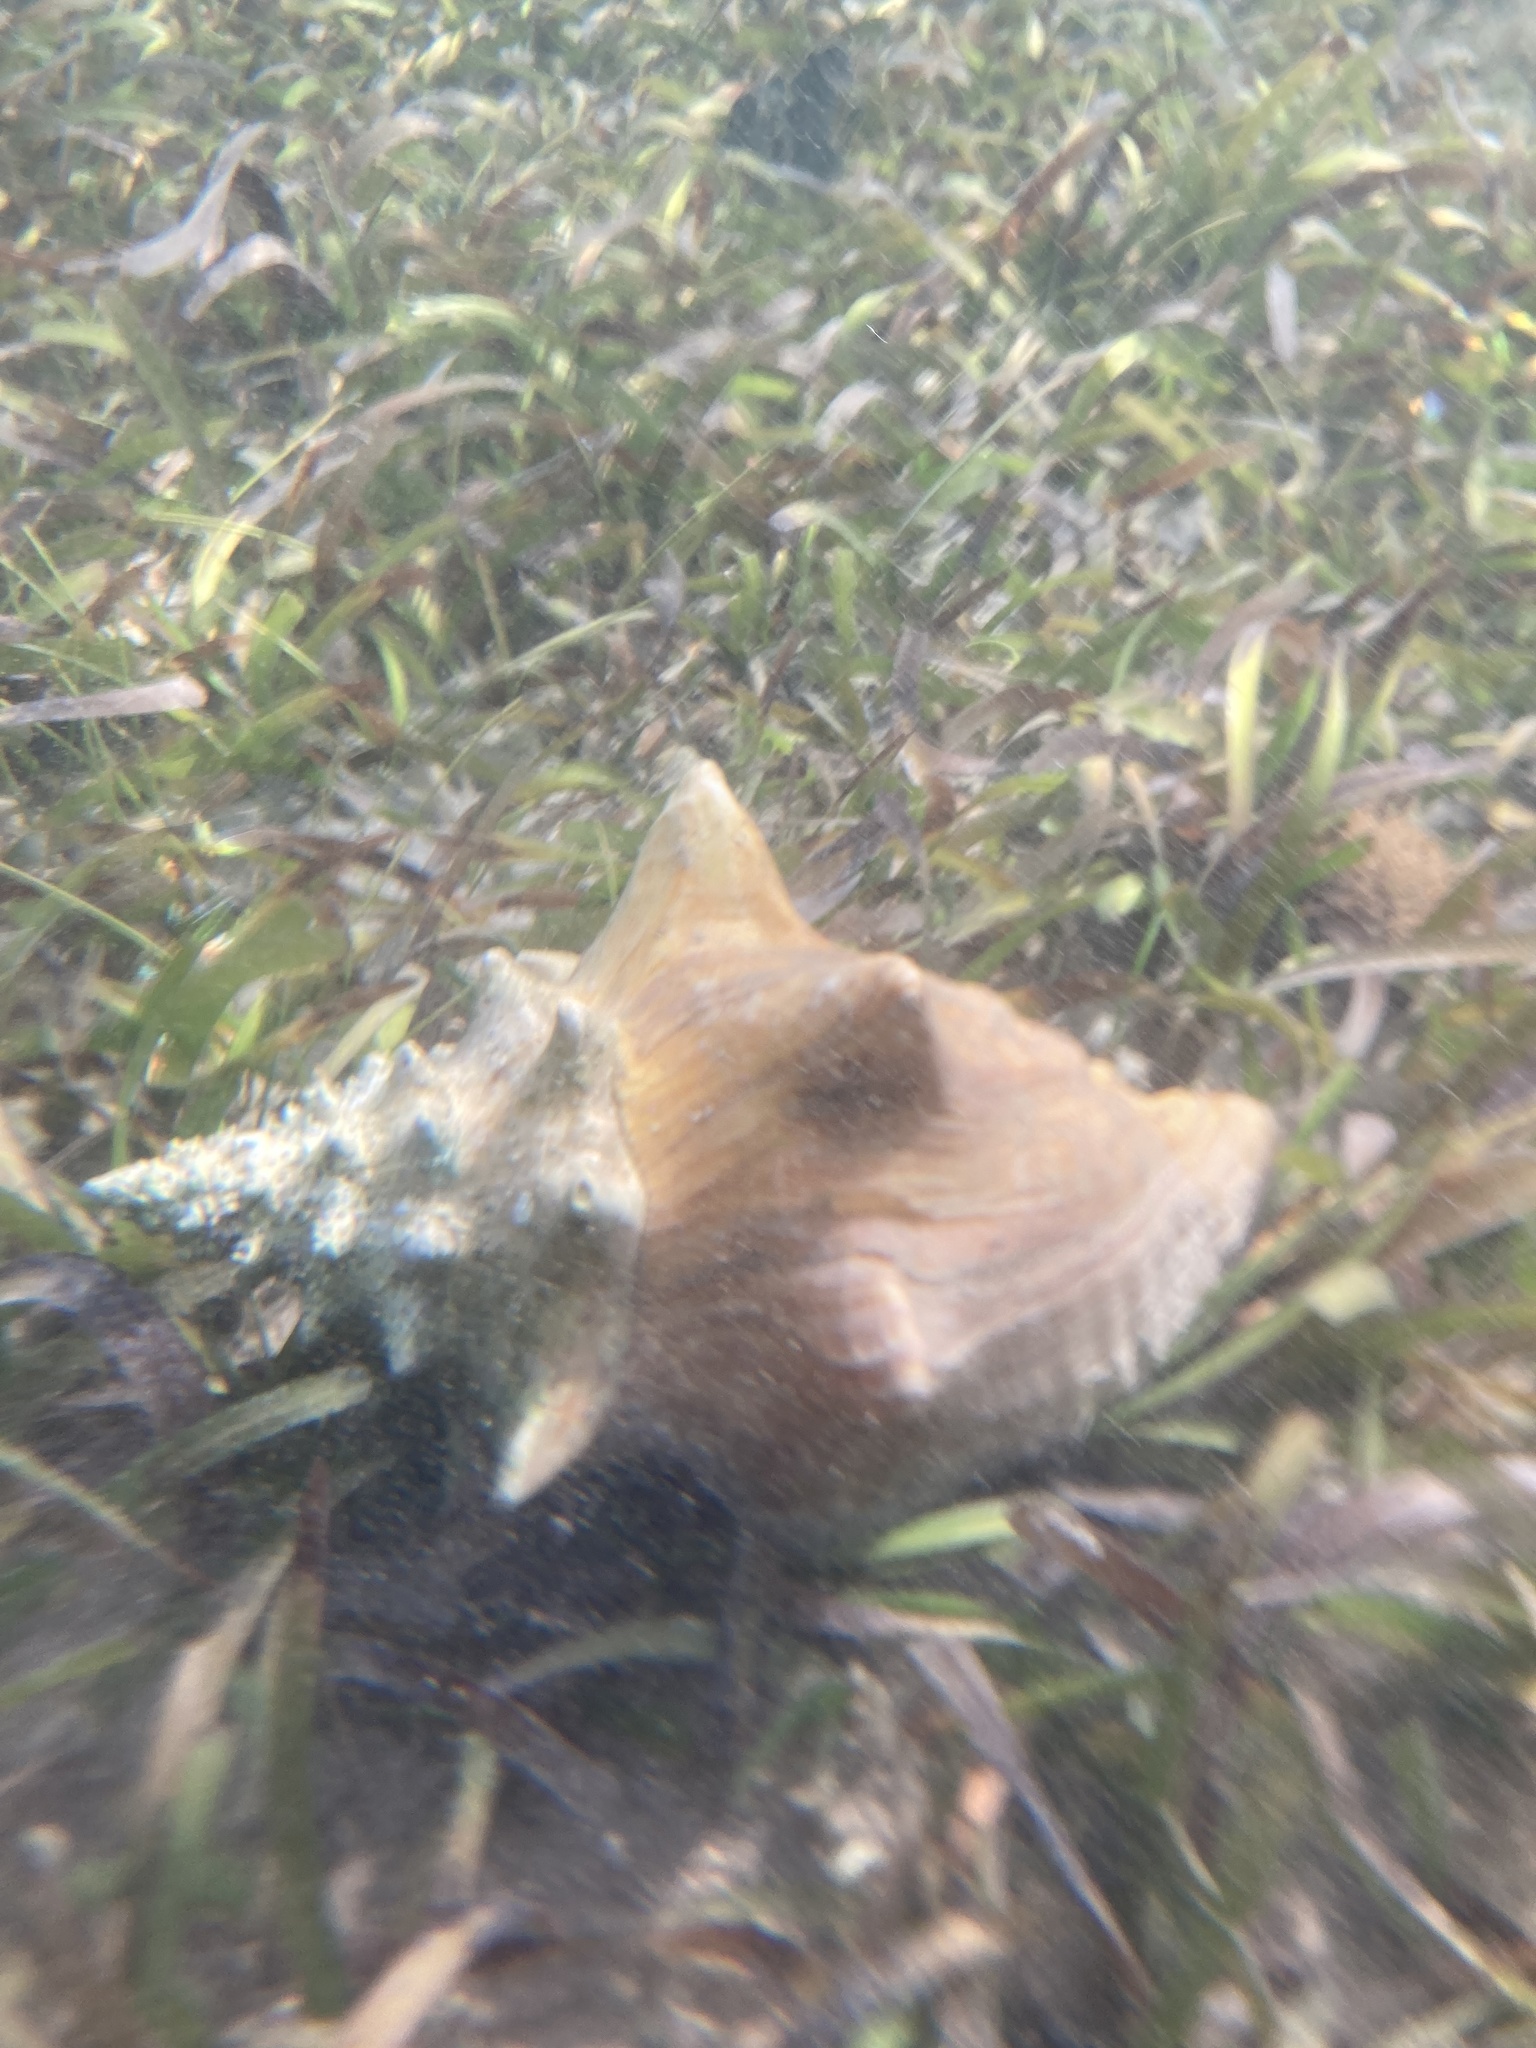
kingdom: Animalia
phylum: Mollusca
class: Gastropoda
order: Littorinimorpha
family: Strombidae
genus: Aliger
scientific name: Aliger gigas
